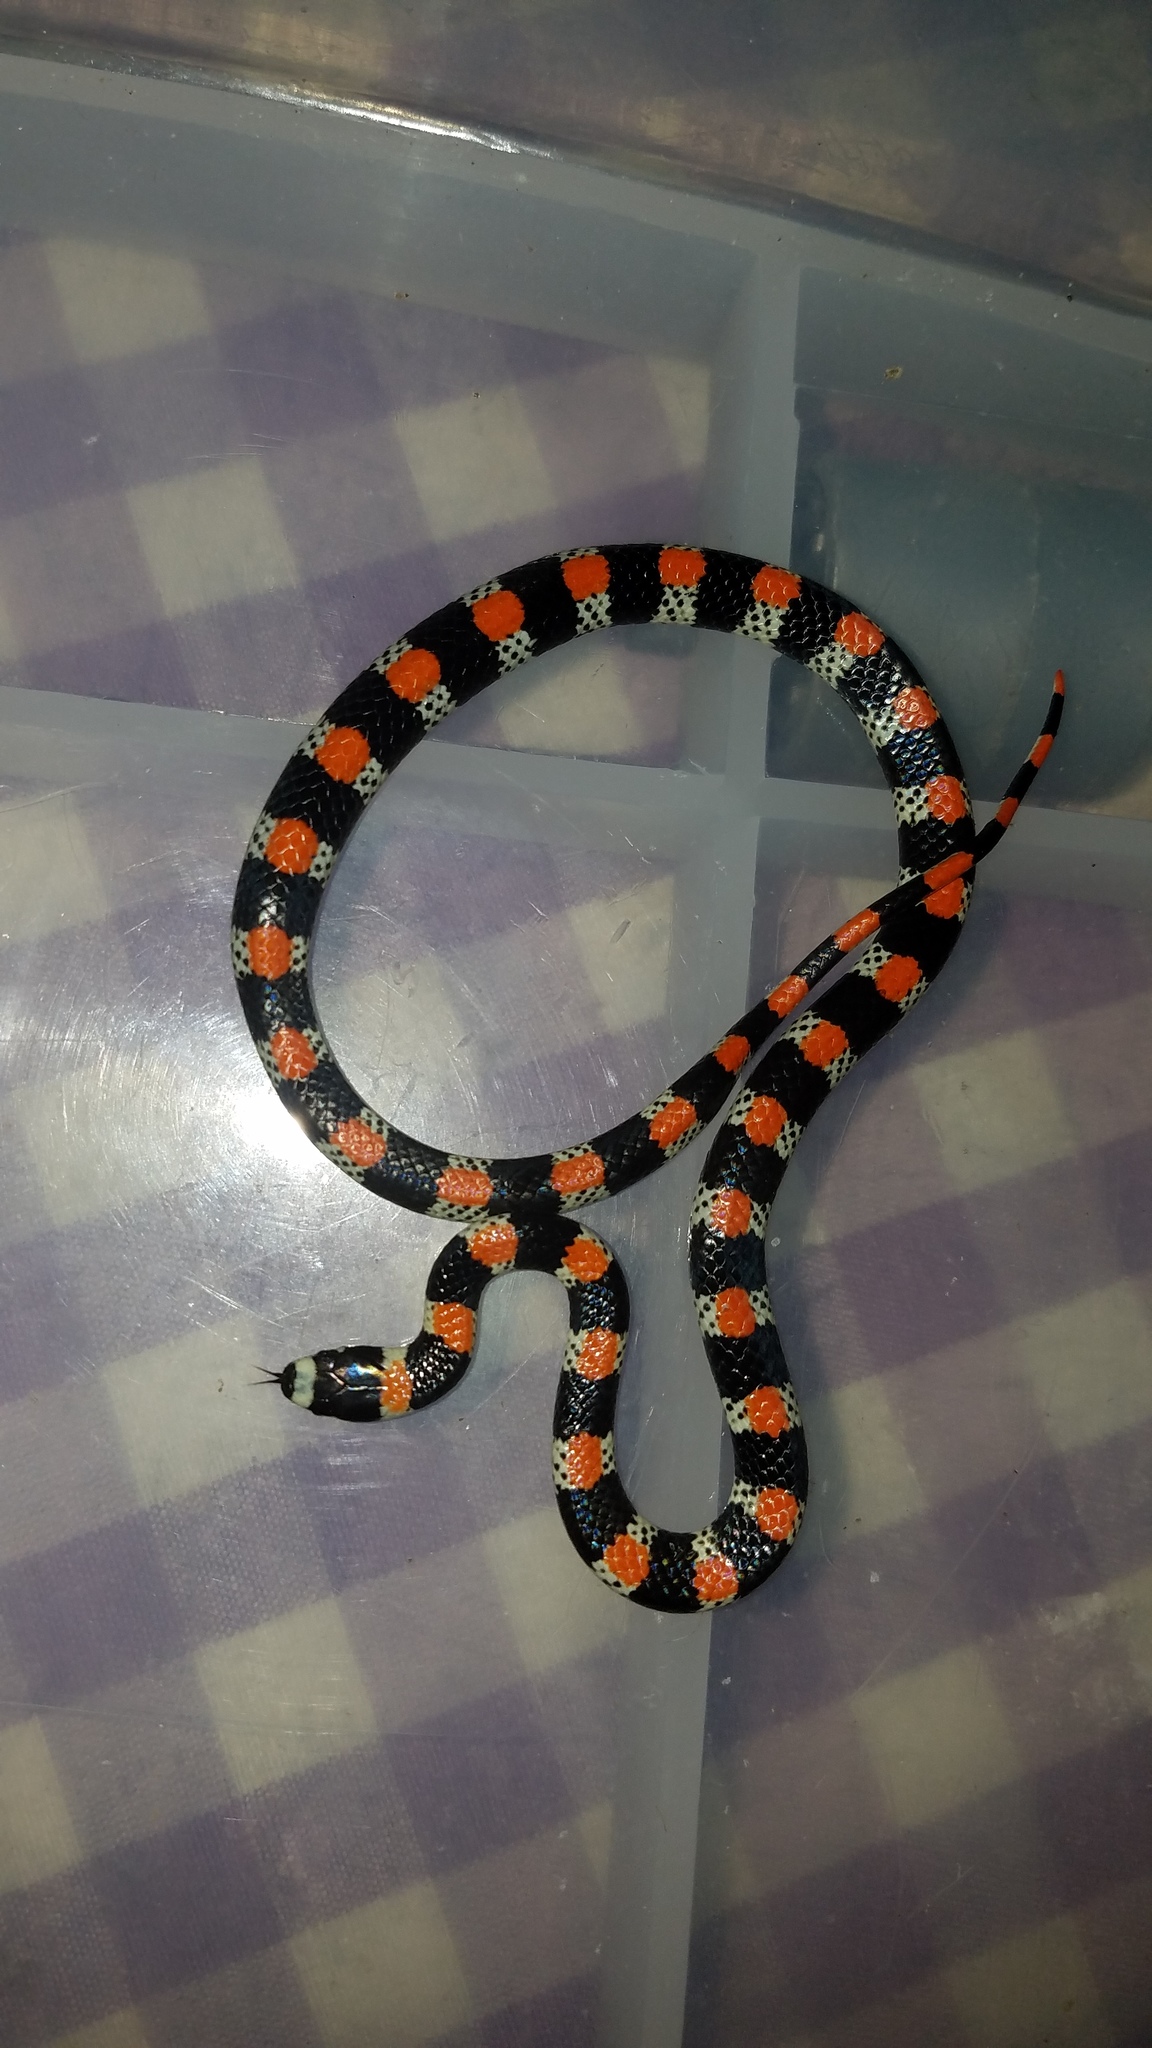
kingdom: Animalia
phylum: Chordata
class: Squamata
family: Colubridae
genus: Scolecophis
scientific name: Scolecophis atrocinctus
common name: Black-banded snake
